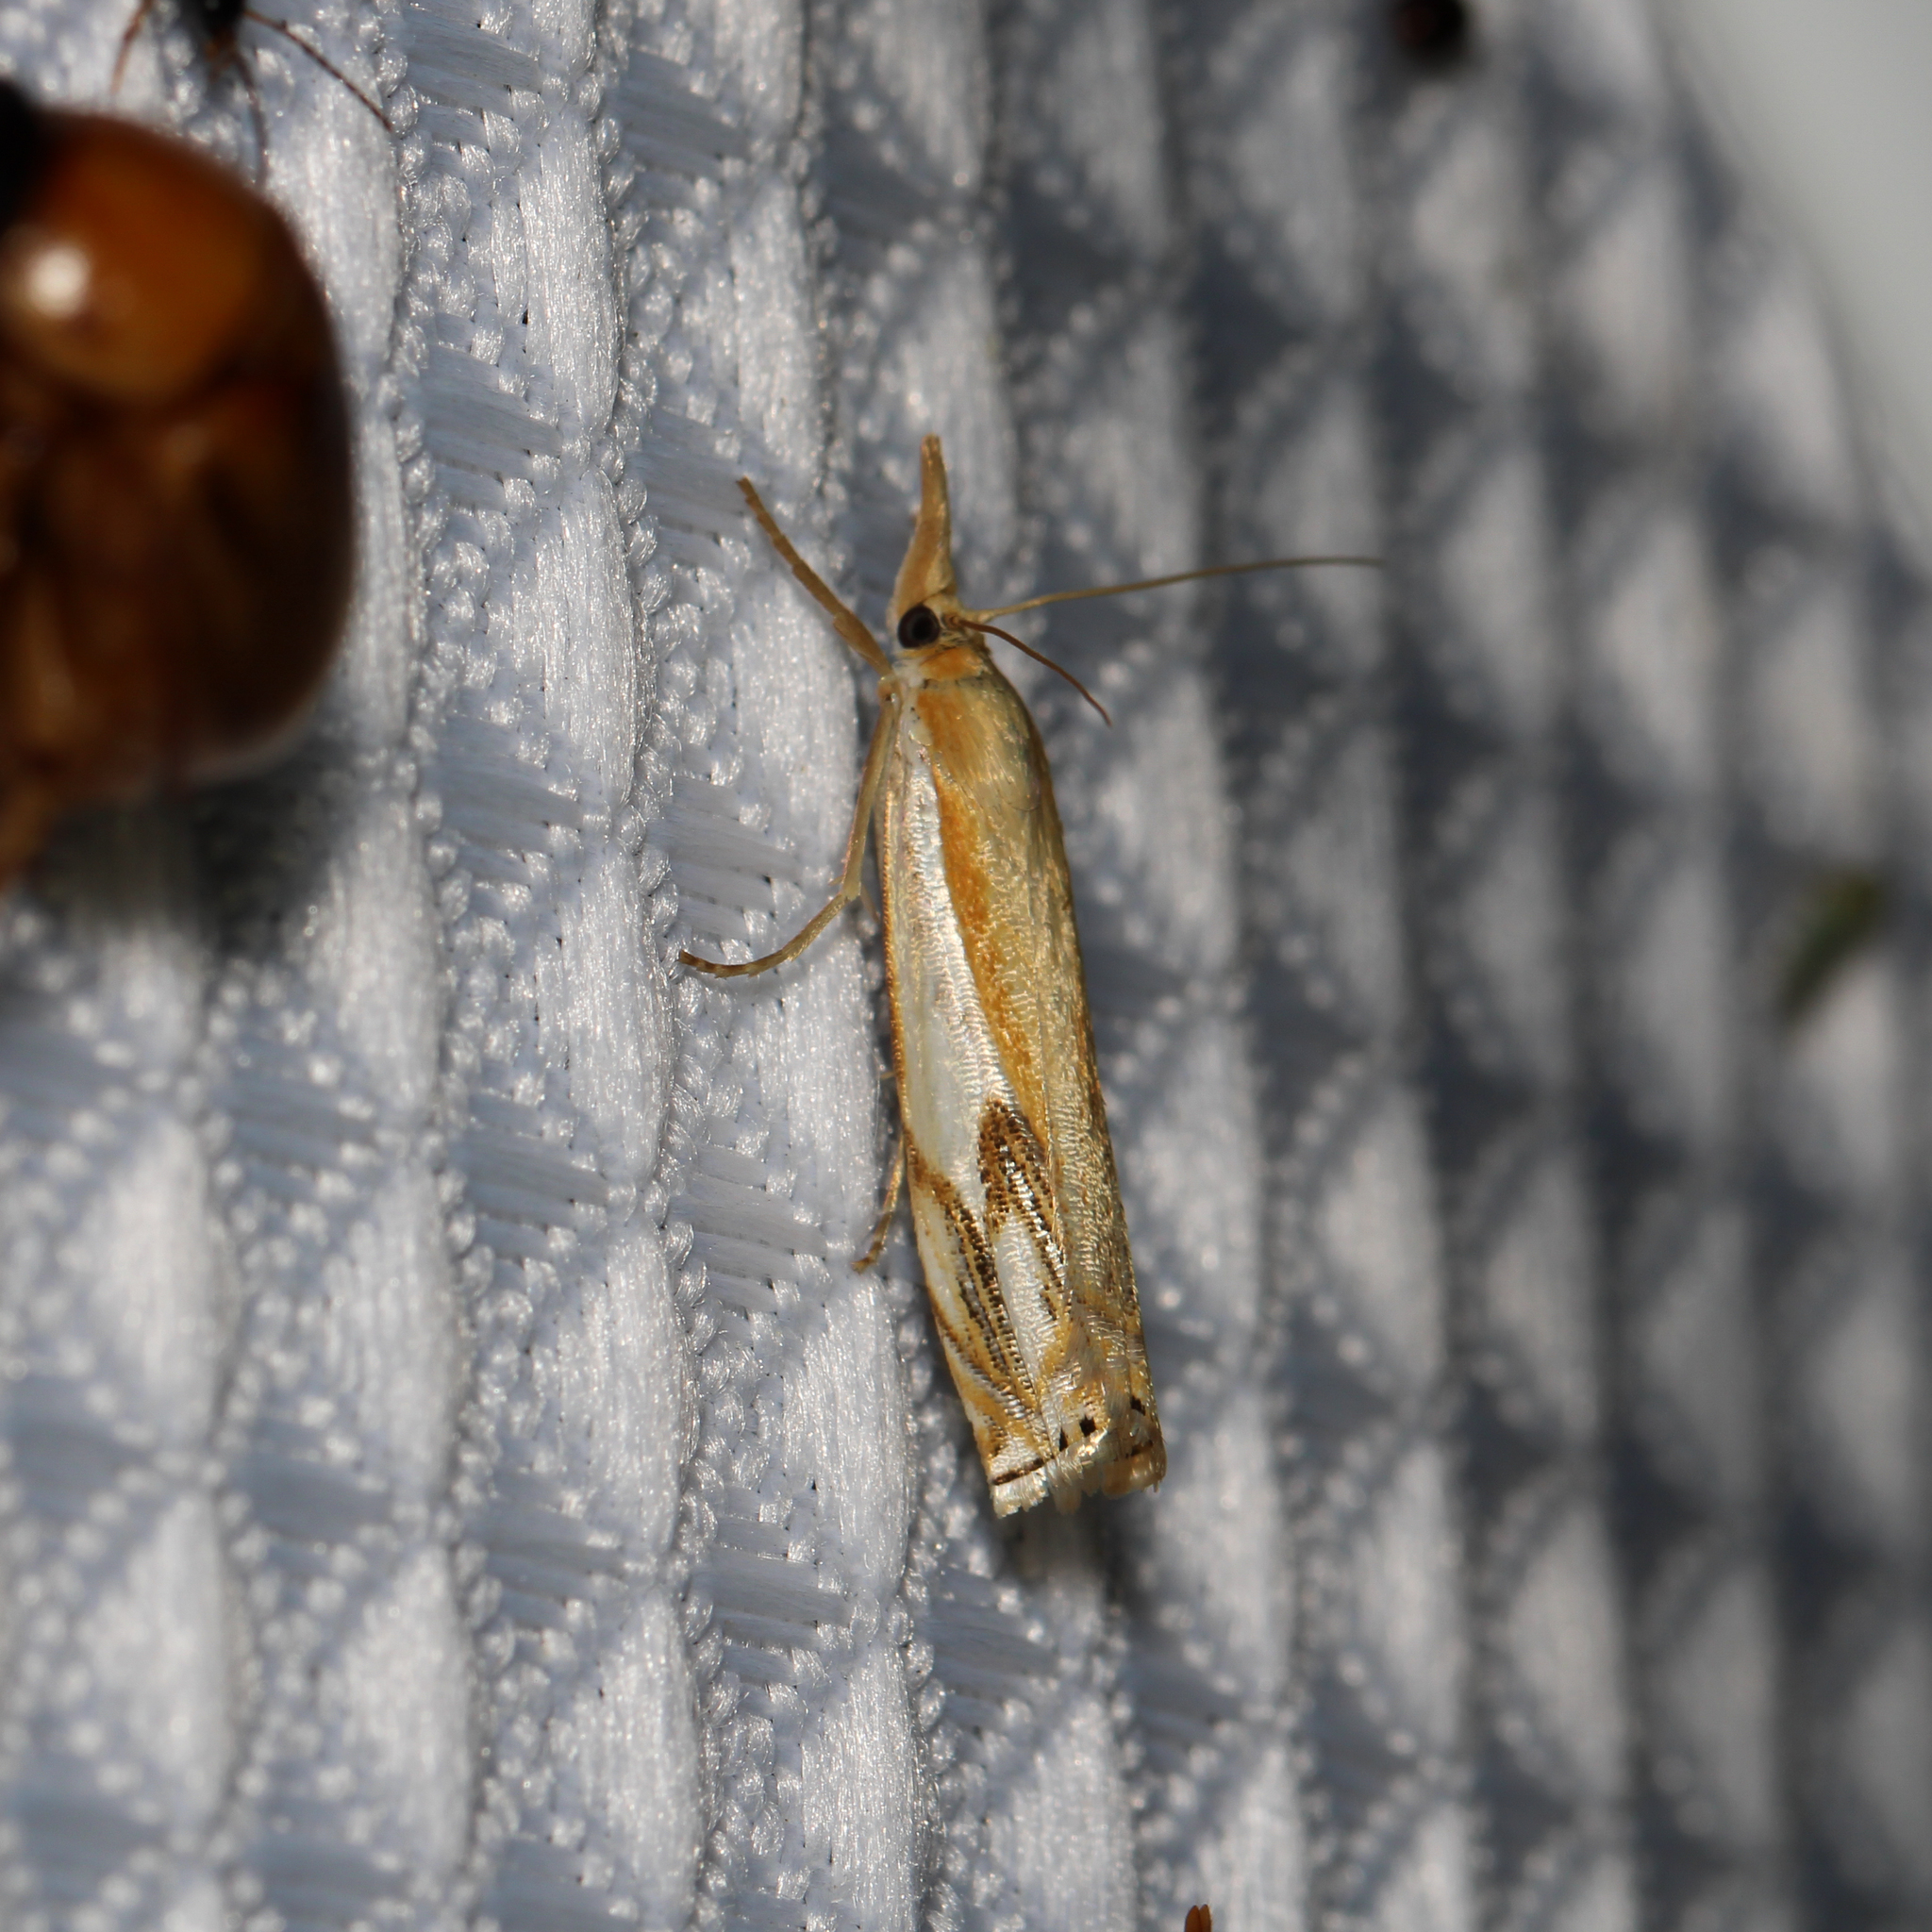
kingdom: Animalia
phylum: Arthropoda
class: Insecta
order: Lepidoptera
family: Crambidae
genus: Crambus
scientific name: Crambus agitatellus
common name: Double-banded grass-veneer
